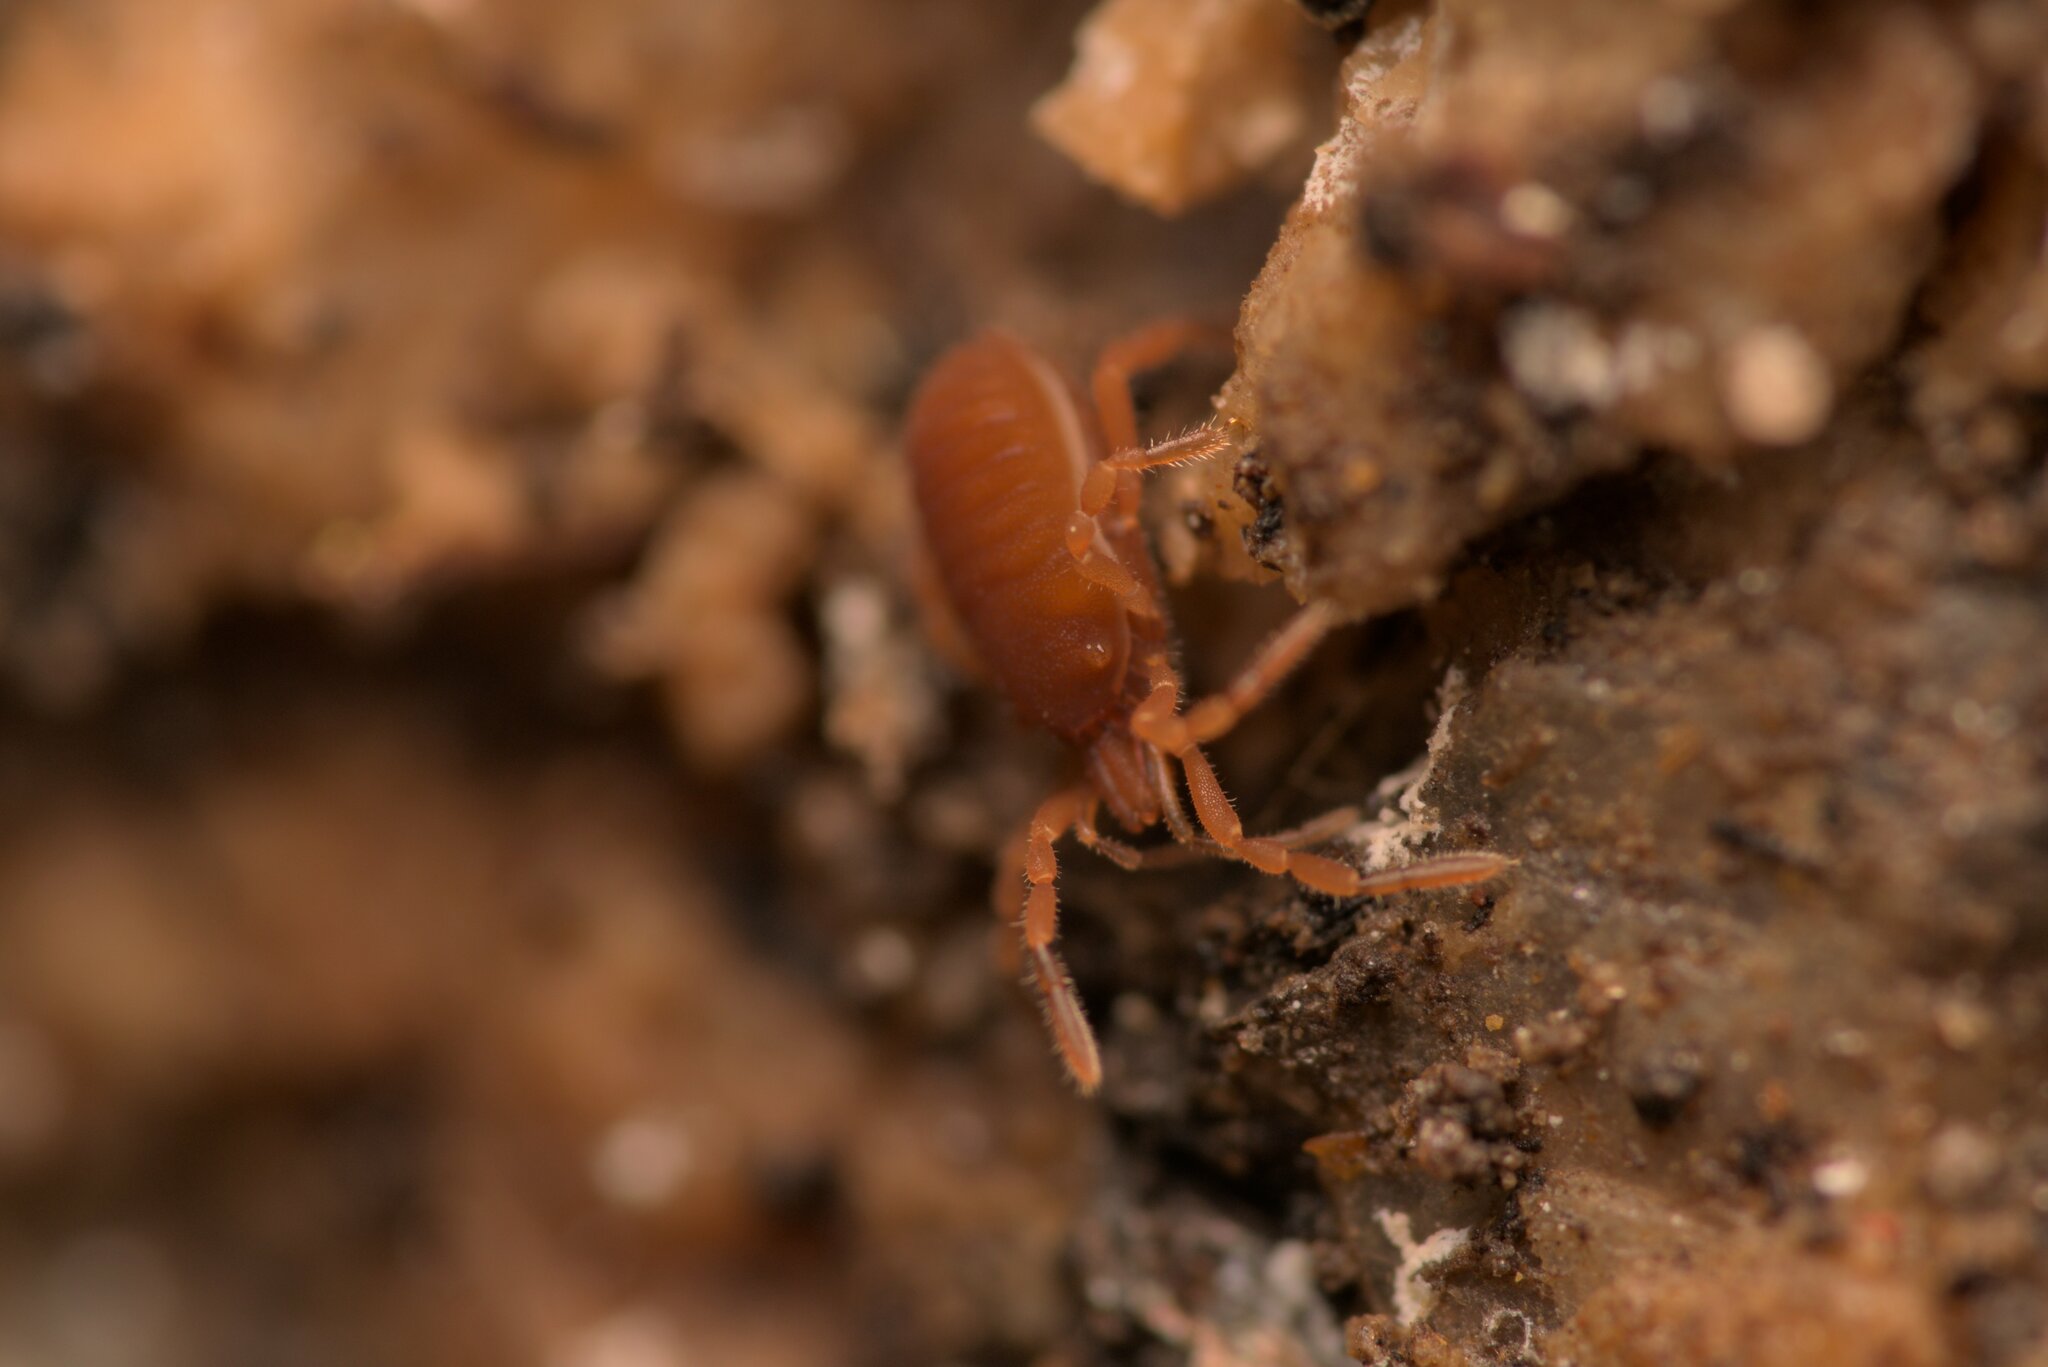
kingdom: Animalia
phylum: Arthropoda
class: Arachnida
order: Opiliones
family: Sironidae
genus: Siro
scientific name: Siro rubens
